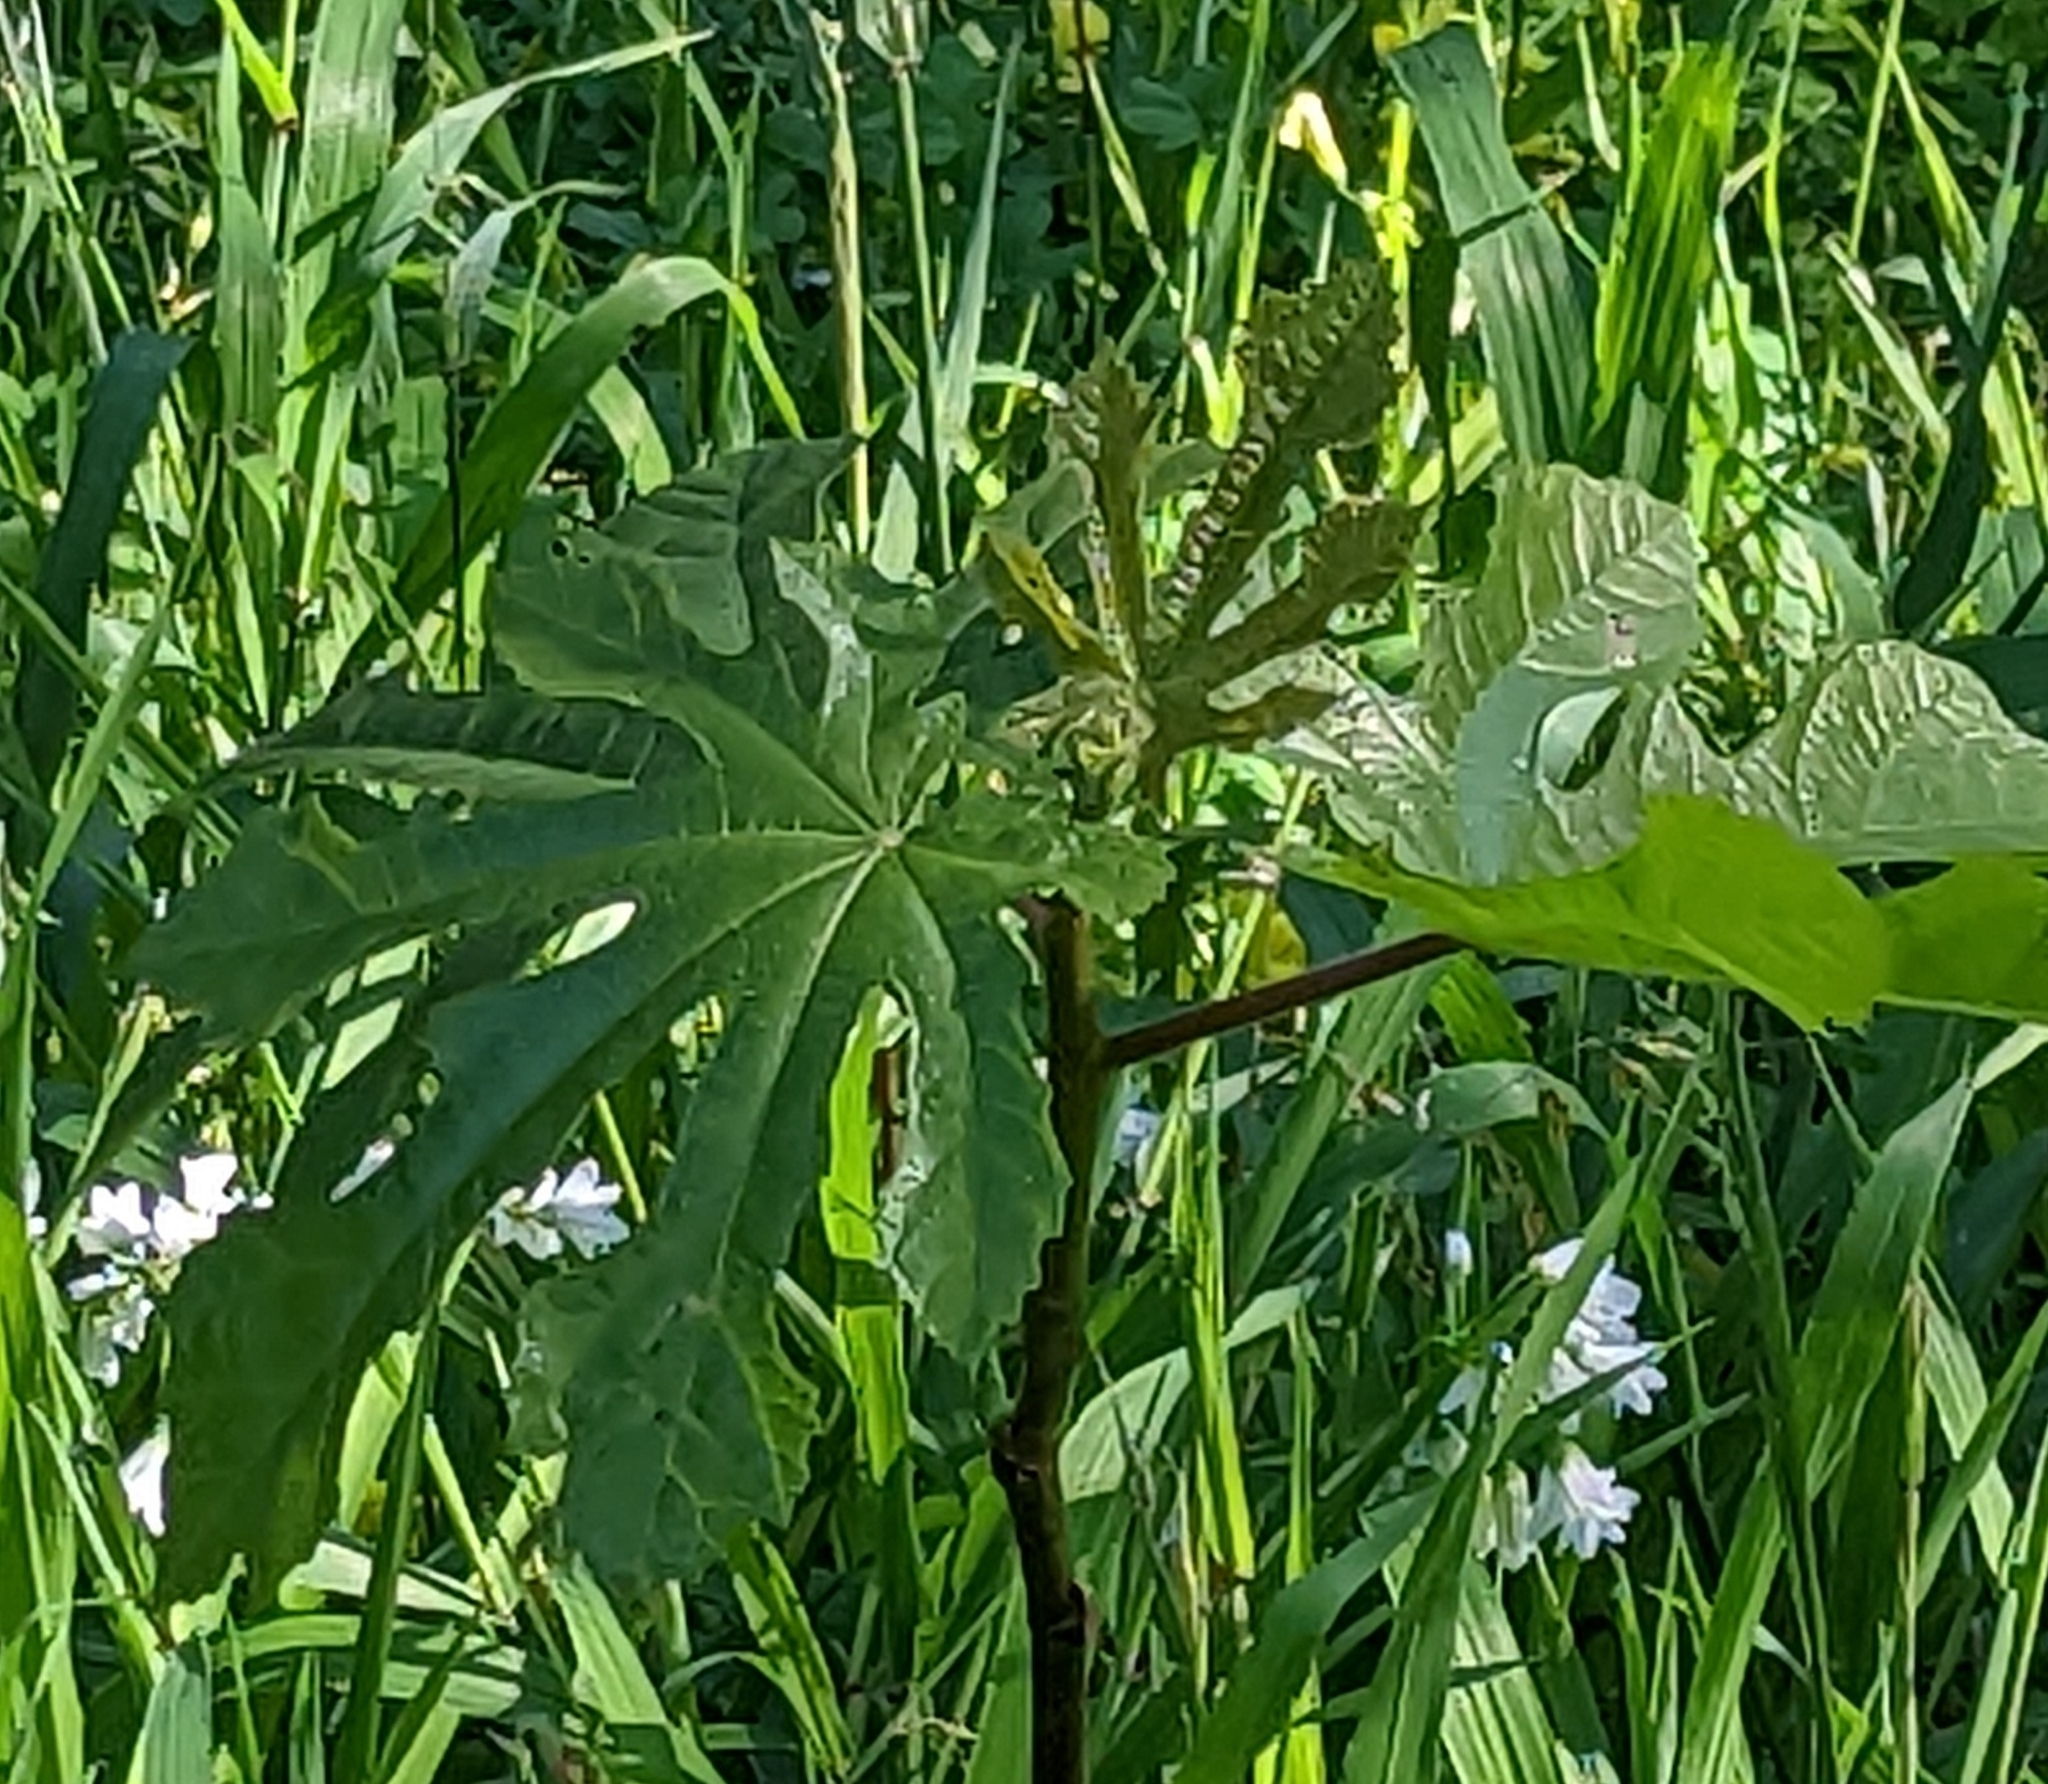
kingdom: Plantae
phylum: Tracheophyta
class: Magnoliopsida
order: Malpighiales
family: Euphorbiaceae
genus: Ricinus
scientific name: Ricinus communis
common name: Castor-oil-plant
